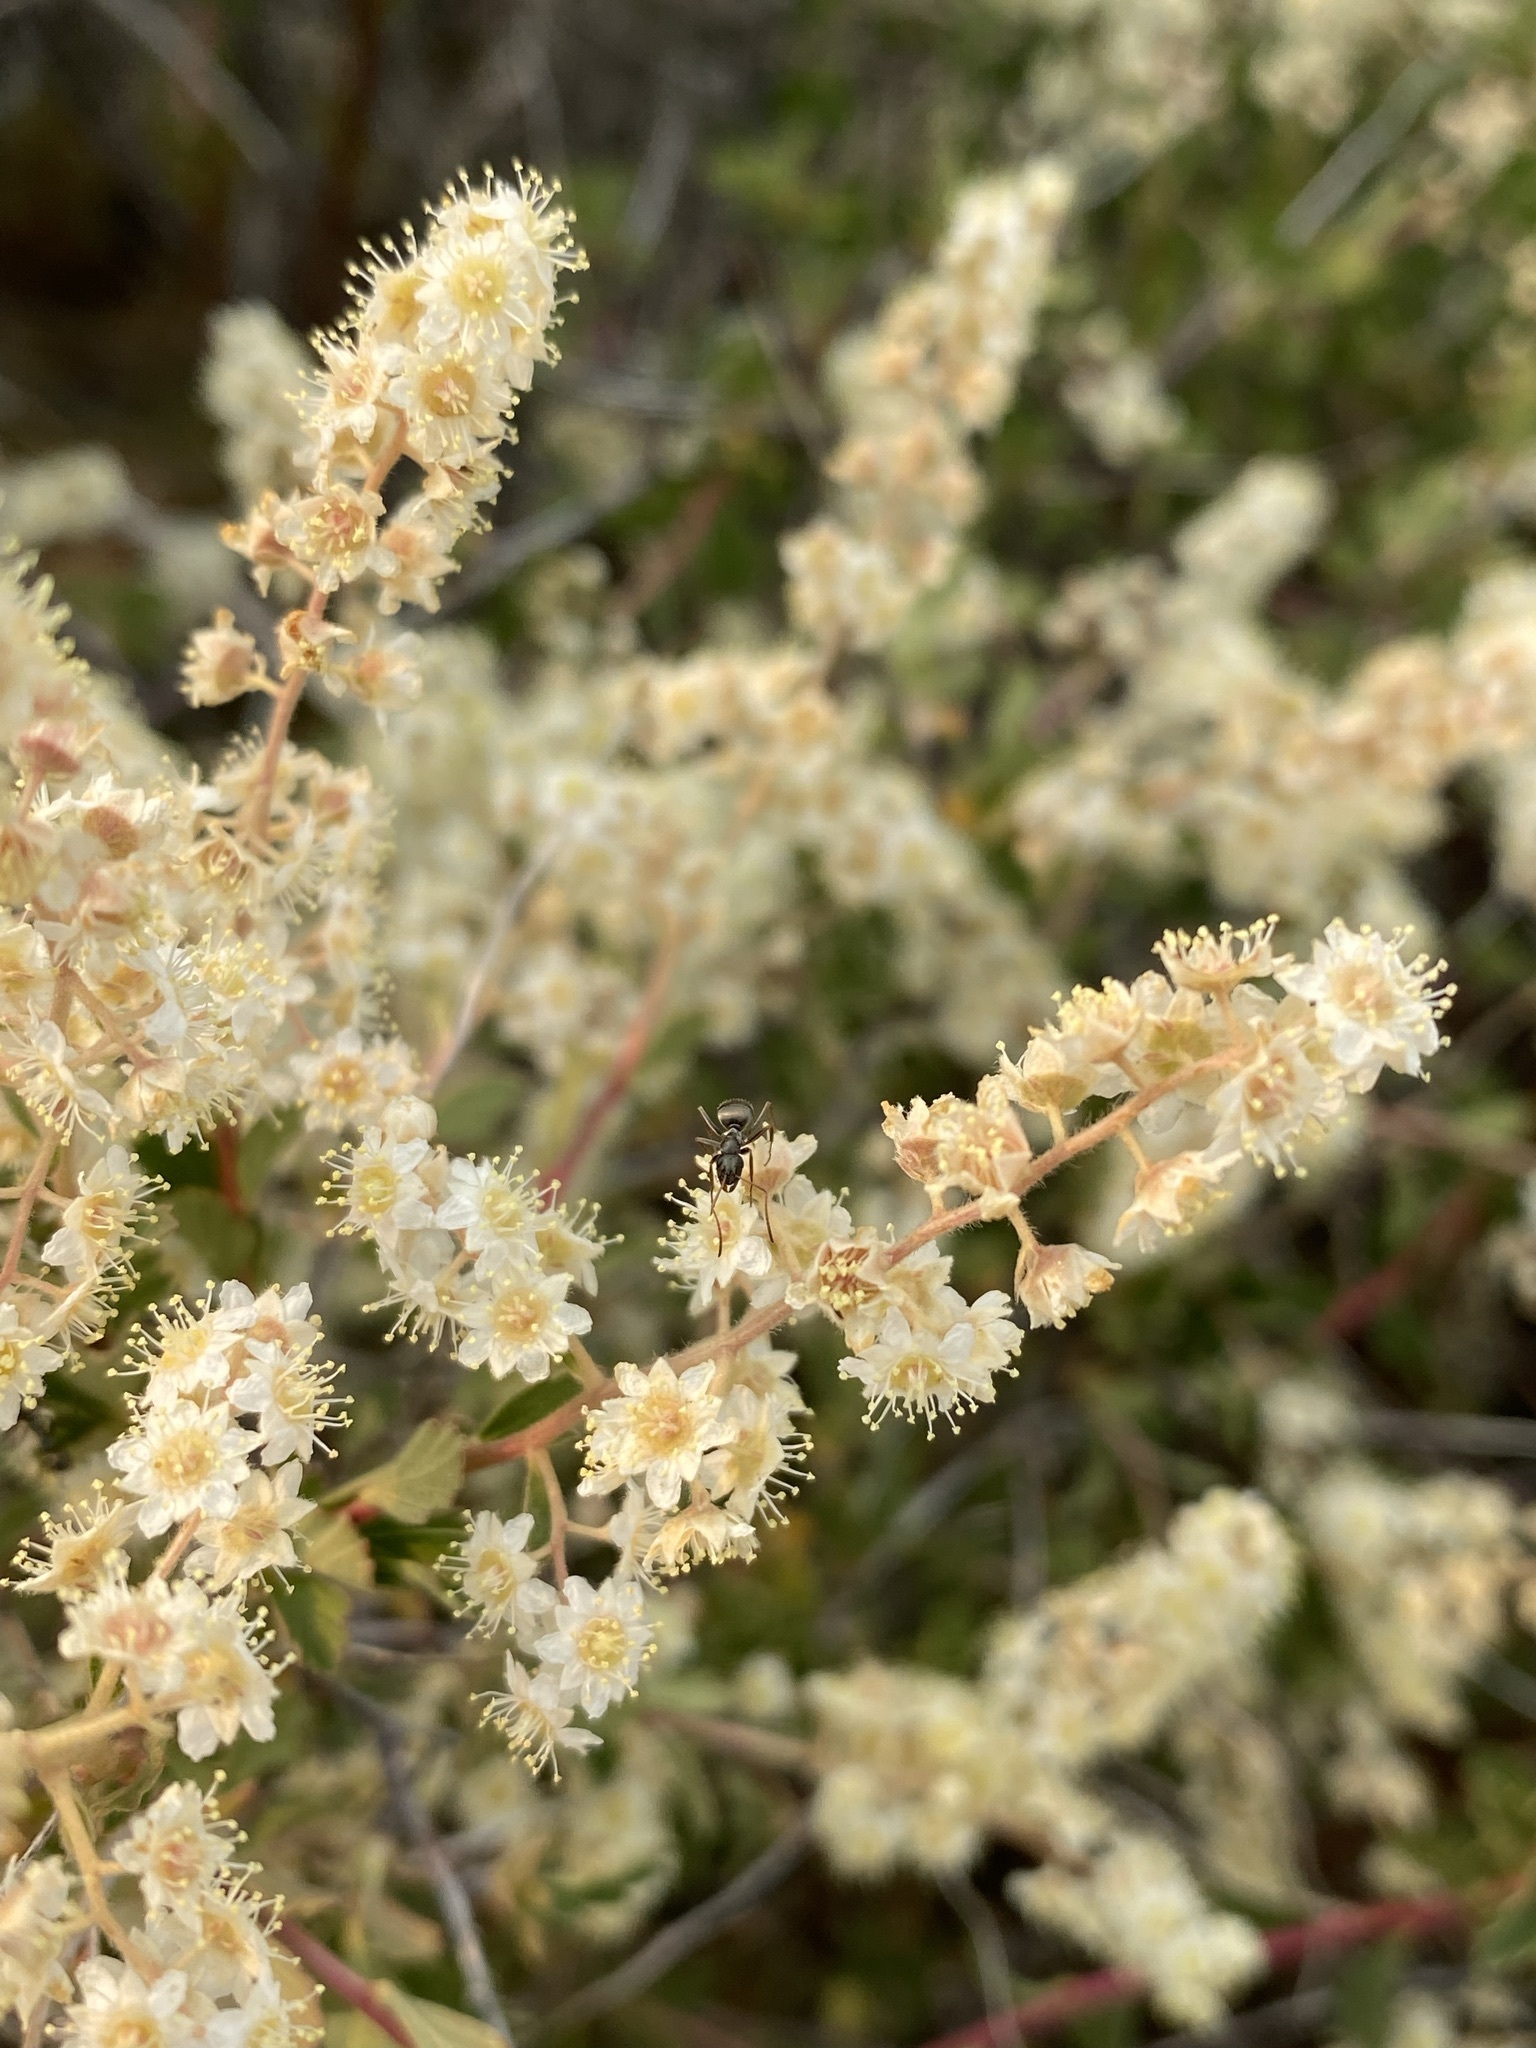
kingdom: Plantae
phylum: Tracheophyta
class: Magnoliopsida
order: Rosales
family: Rosaceae
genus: Holodiscus
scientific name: Holodiscus discolor
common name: Oceanspray
